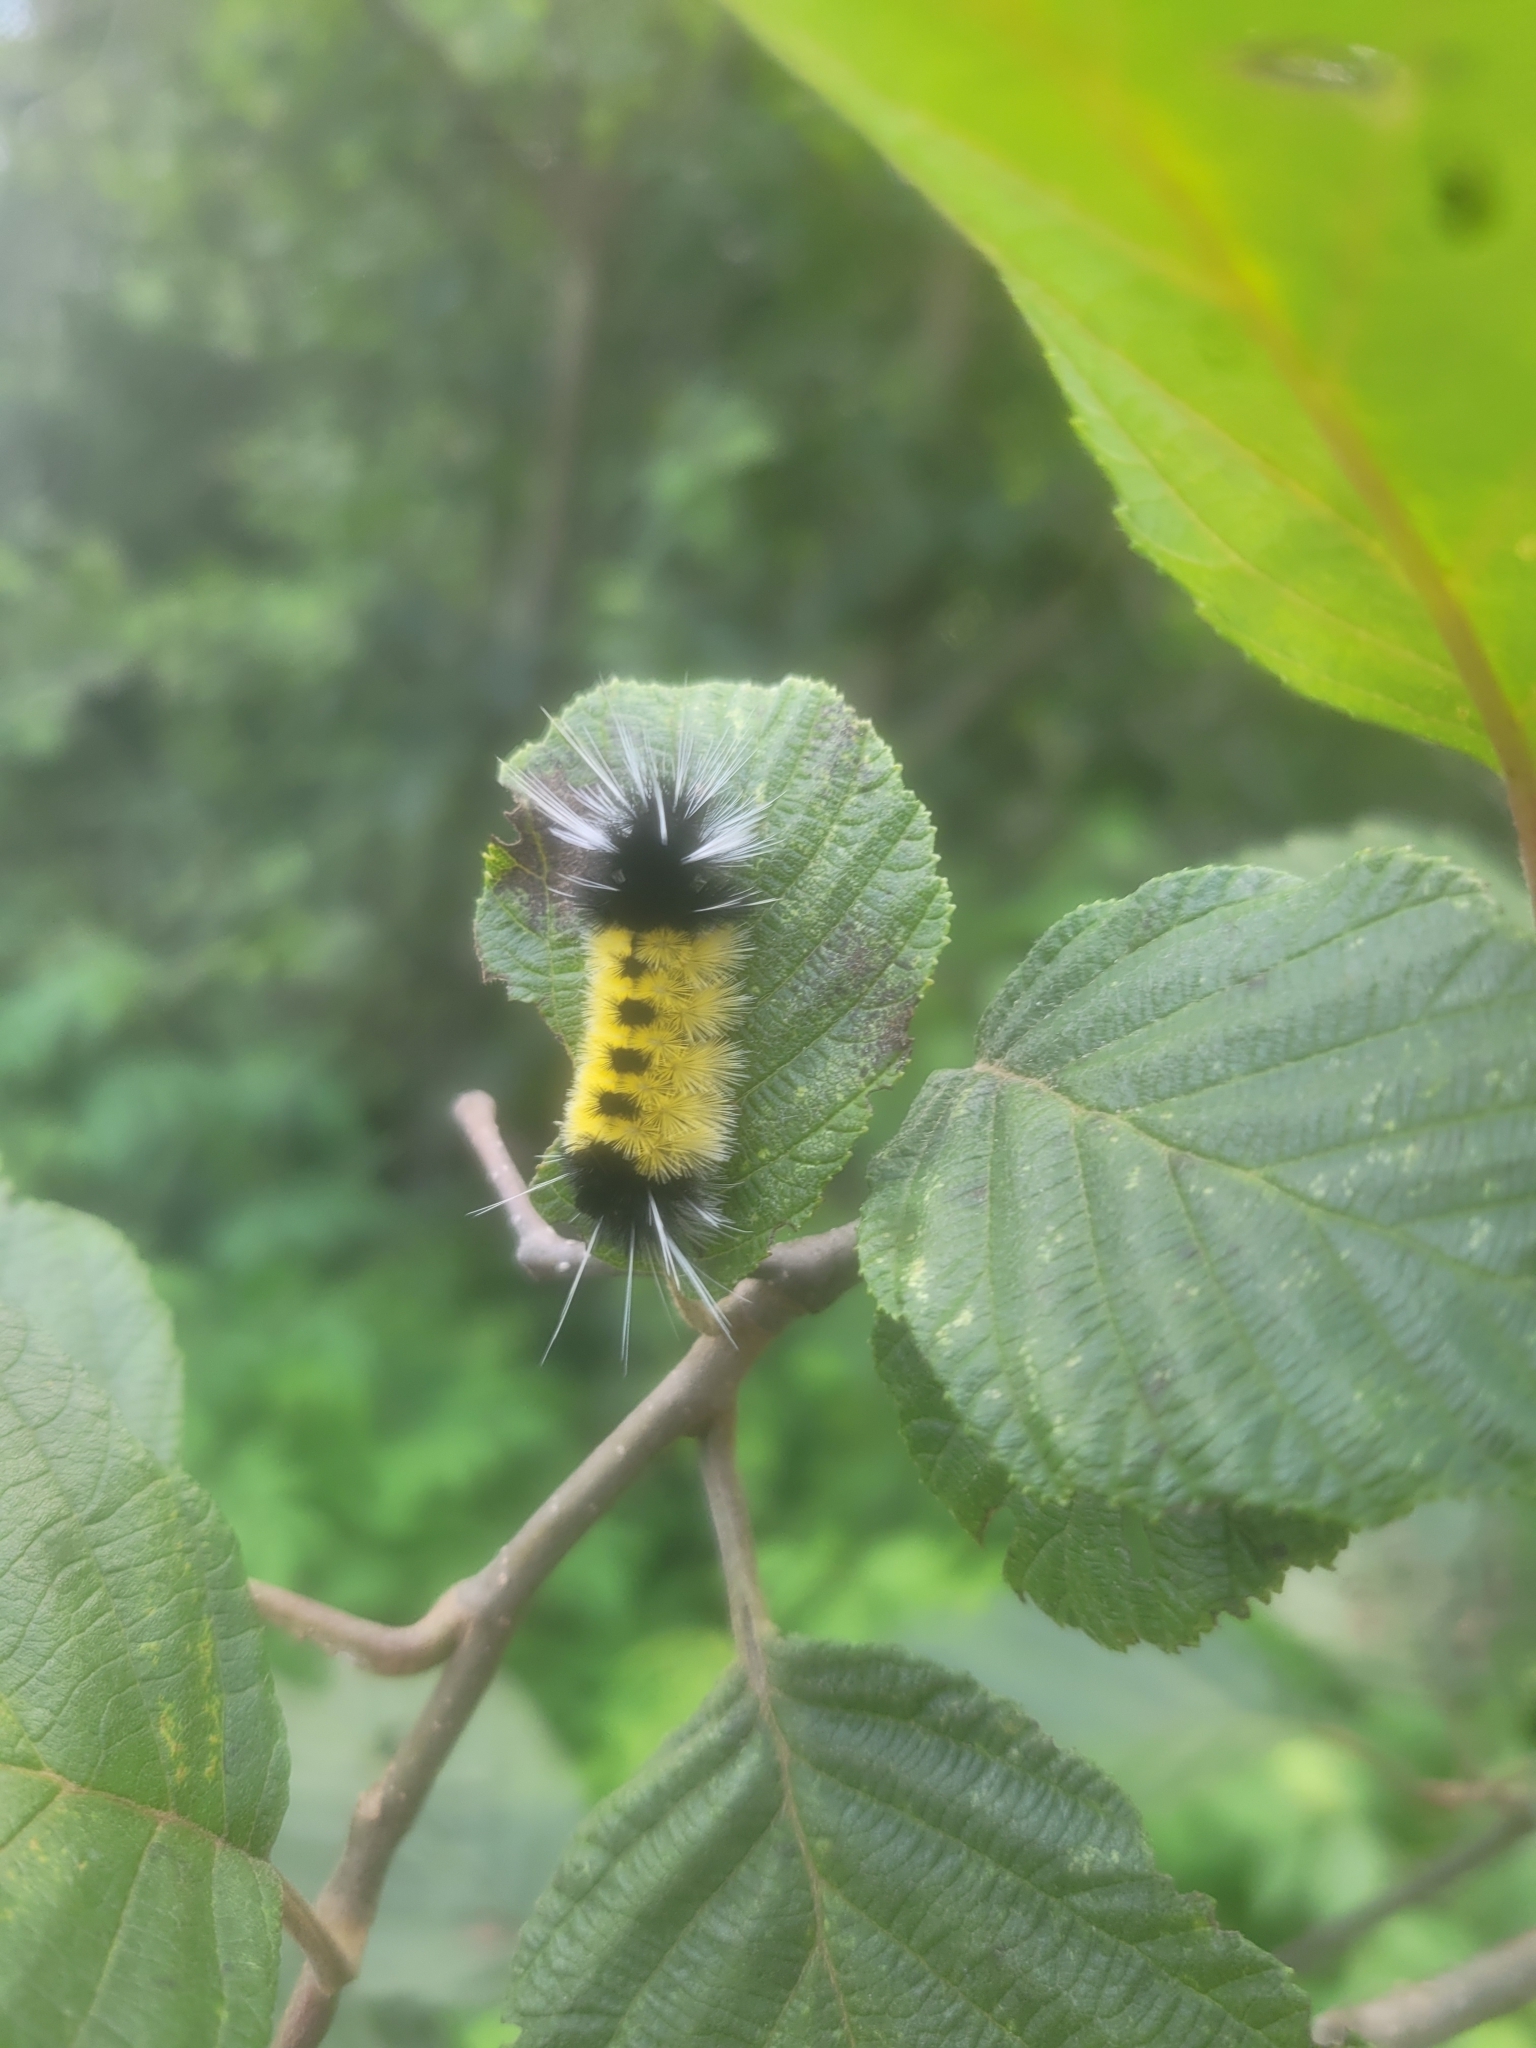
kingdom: Animalia
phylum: Arthropoda
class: Insecta
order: Lepidoptera
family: Erebidae
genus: Lophocampa
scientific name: Lophocampa maculata
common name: Spotted tussock moth
